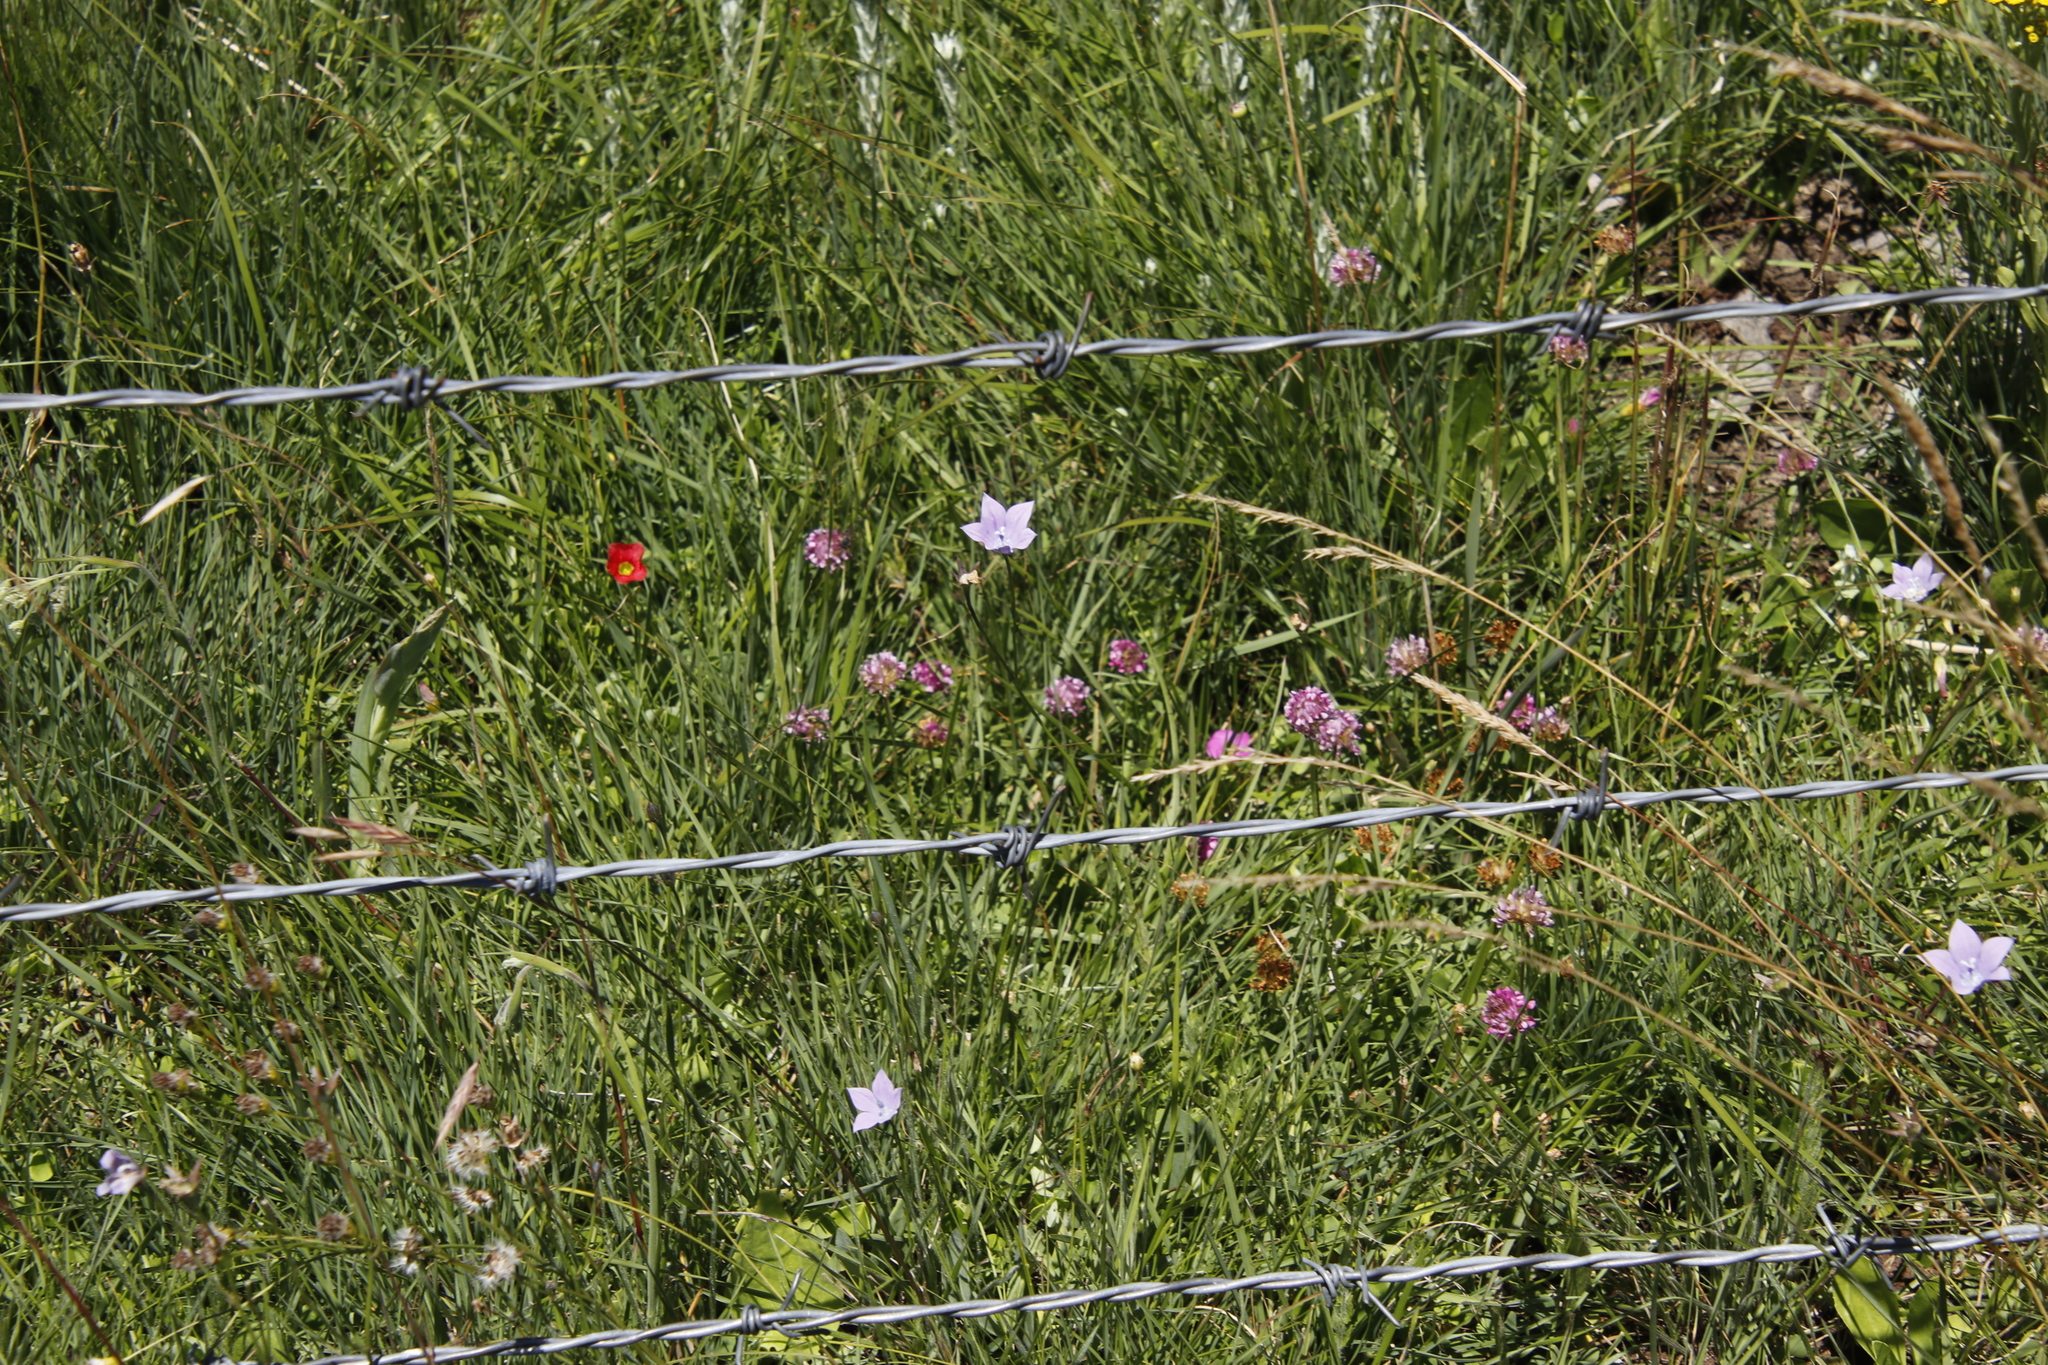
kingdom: Plantae
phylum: Tracheophyta
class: Magnoliopsida
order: Fabales
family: Fabaceae
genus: Trifolium
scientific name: Trifolium burchellianum
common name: Burchell's clover
